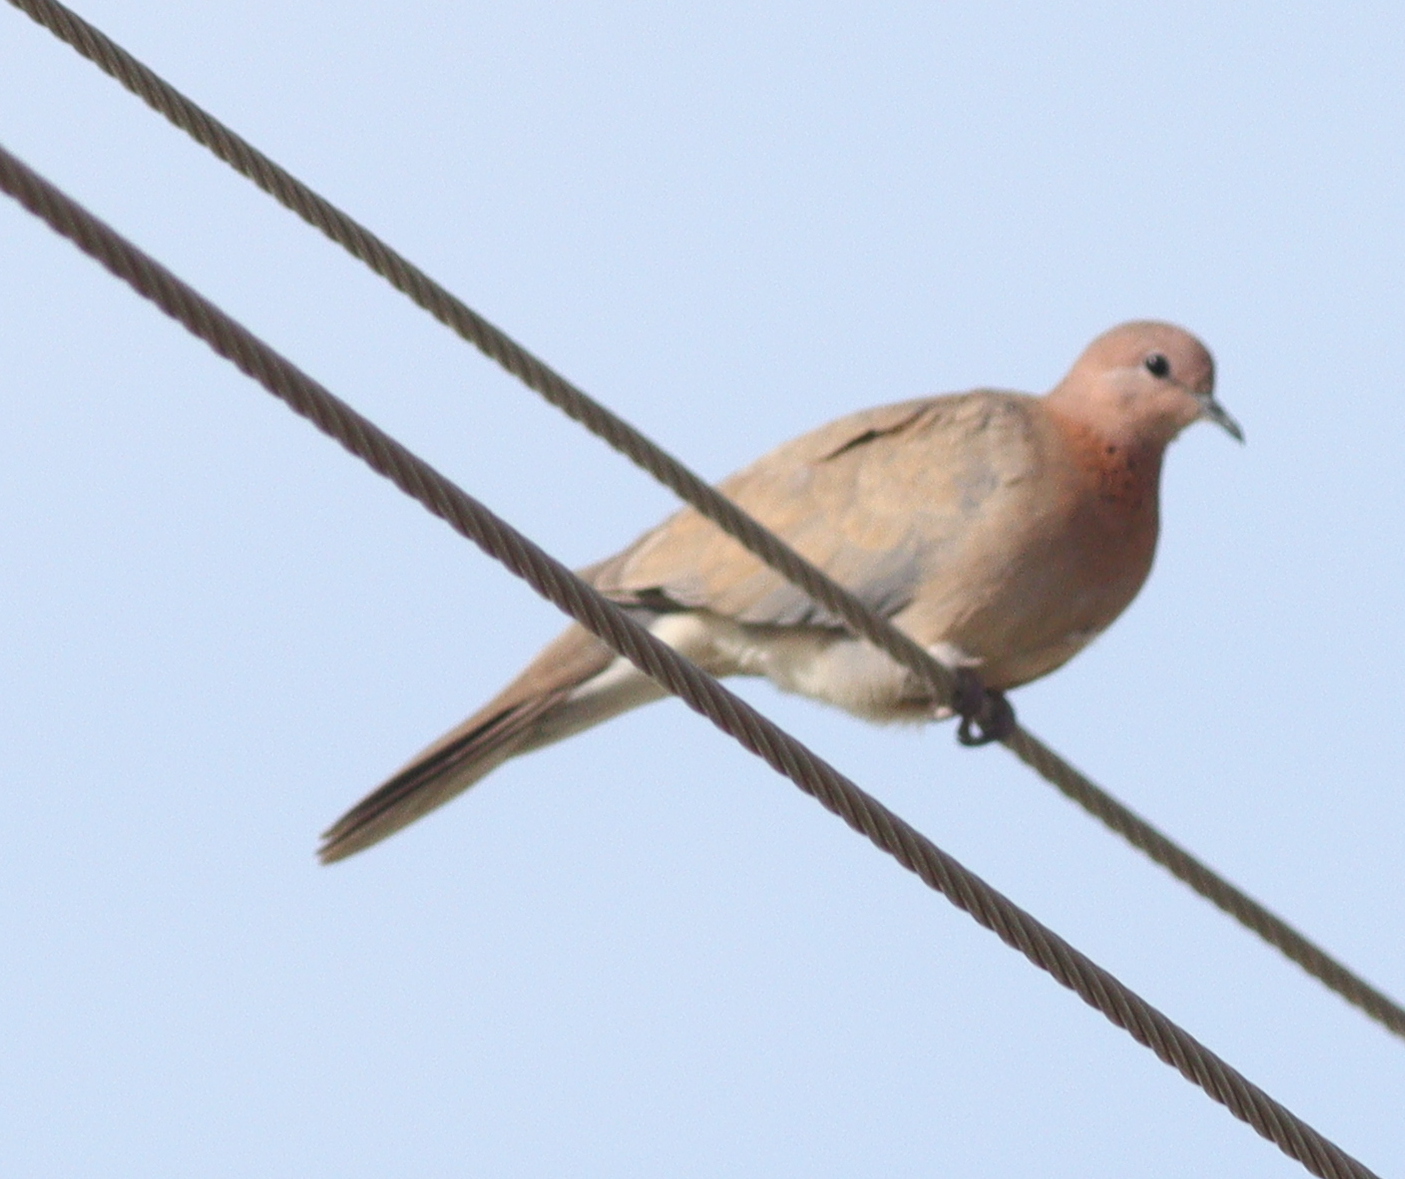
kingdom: Animalia
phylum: Chordata
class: Aves
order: Columbiformes
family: Columbidae
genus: Spilopelia
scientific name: Spilopelia senegalensis
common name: Laughing dove
